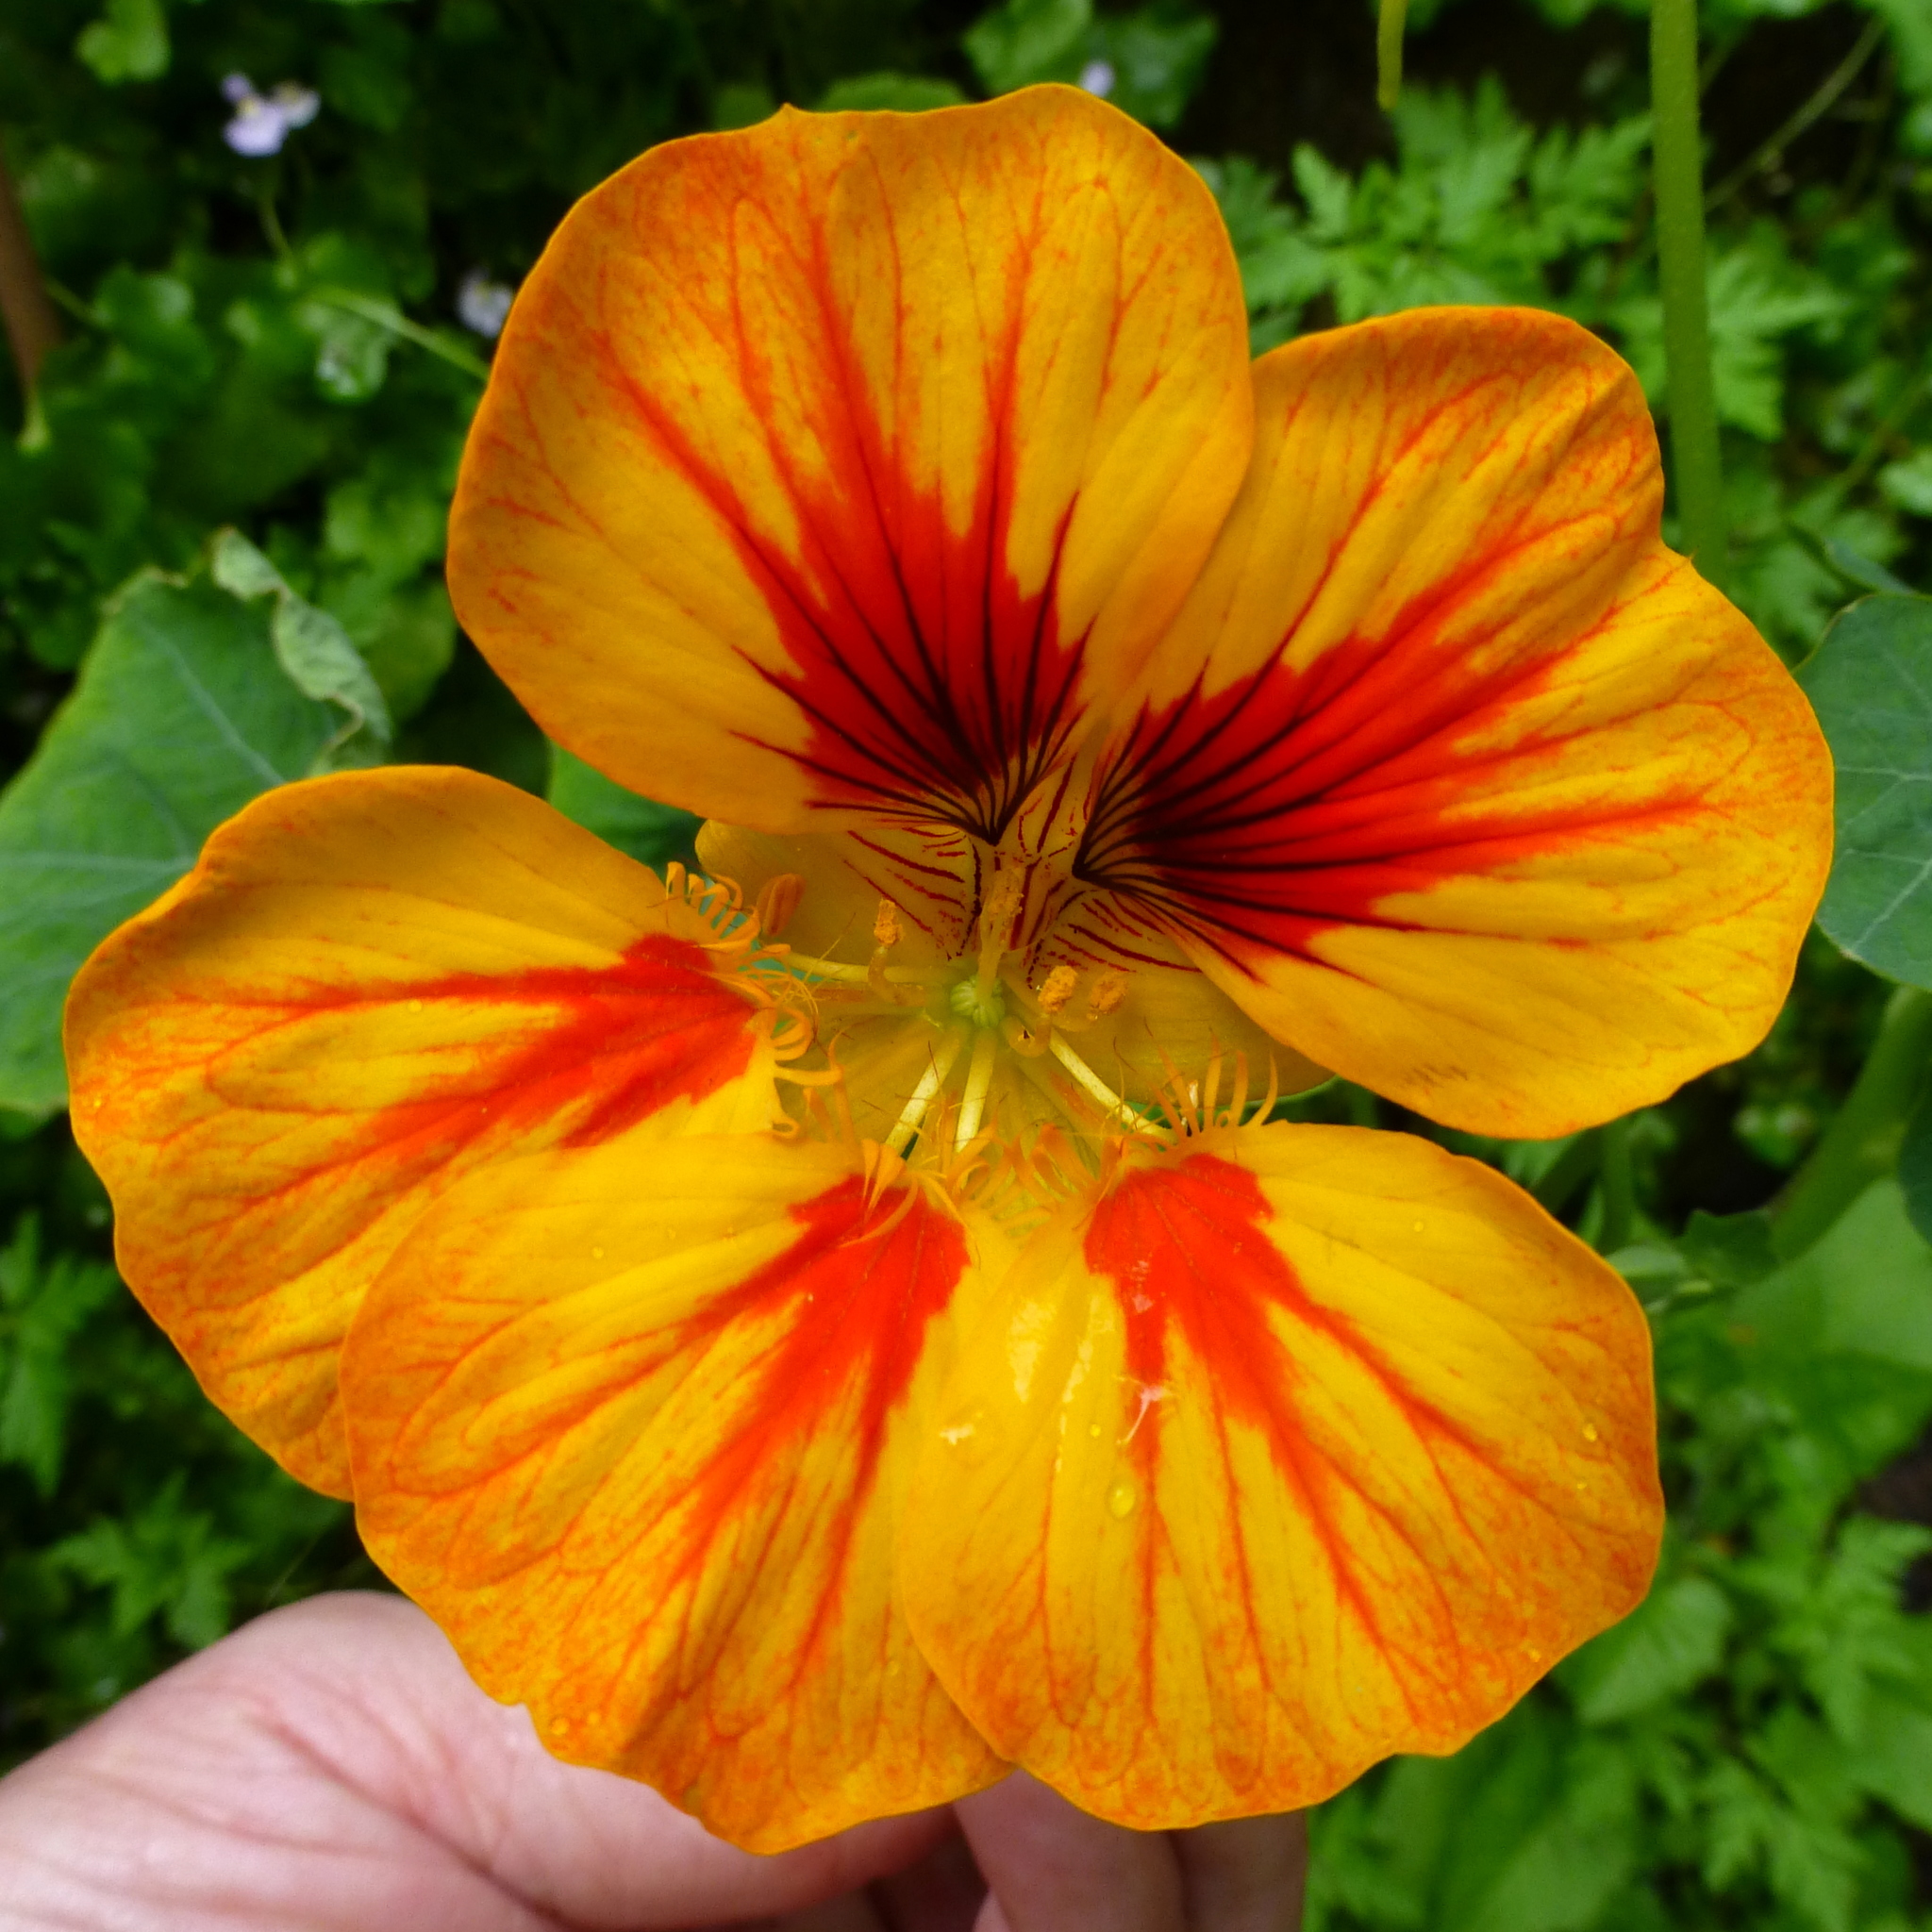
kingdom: Plantae
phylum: Tracheophyta
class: Magnoliopsida
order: Brassicales
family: Tropaeolaceae
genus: Tropaeolum
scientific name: Tropaeolum majus
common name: Nasturtium
